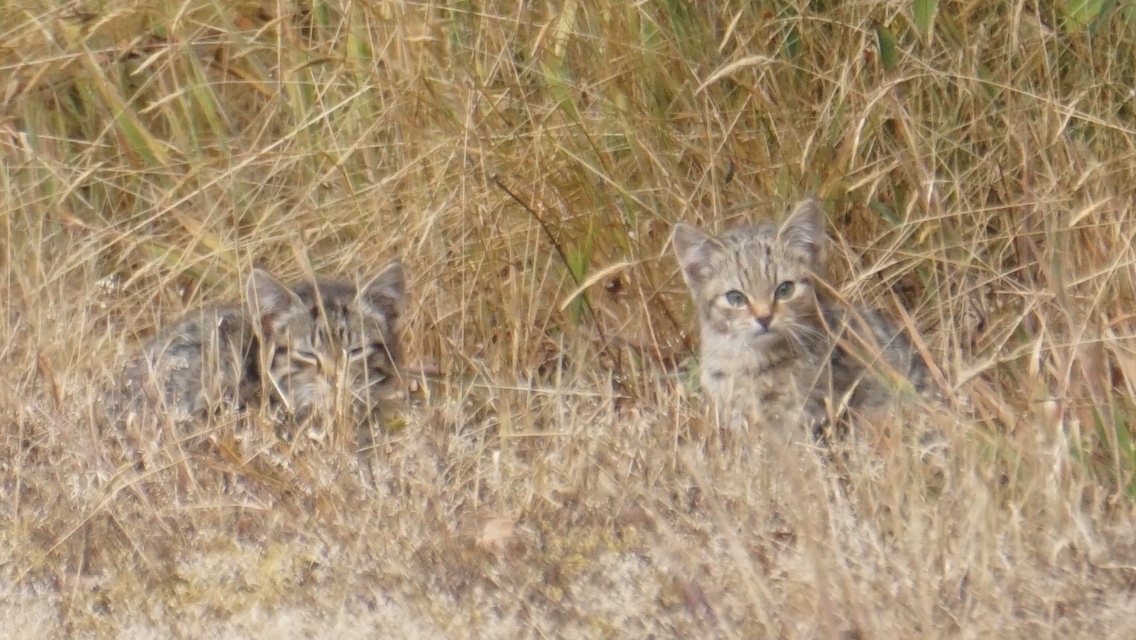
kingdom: Animalia
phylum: Chordata
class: Mammalia
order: Carnivora
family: Felidae
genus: Felis
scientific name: Felis catus
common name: Domestic cat
